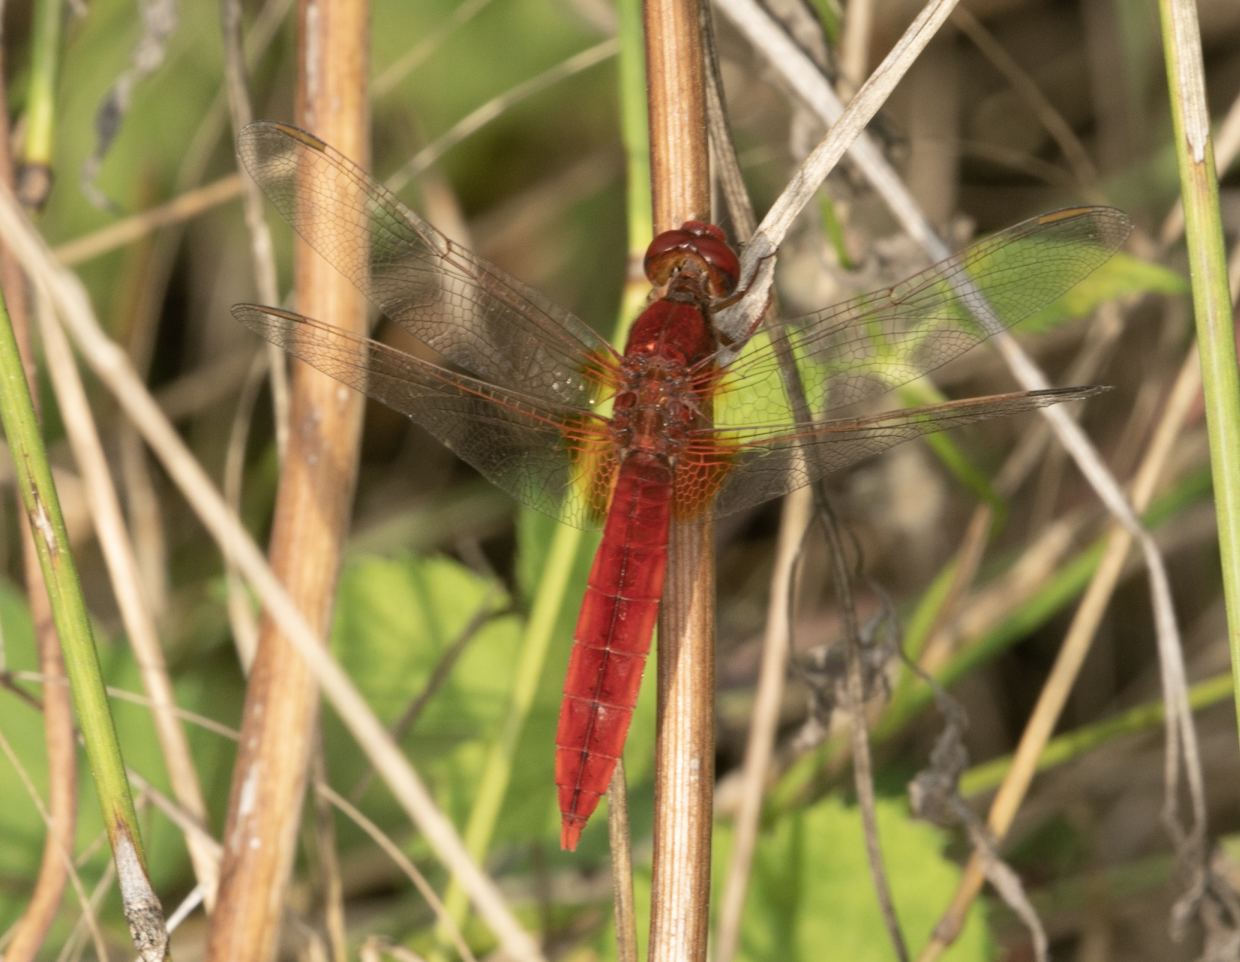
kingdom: Animalia
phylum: Arthropoda
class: Insecta
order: Odonata
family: Libellulidae
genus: Crocothemis
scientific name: Crocothemis erythraea
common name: Scarlet dragonfly
